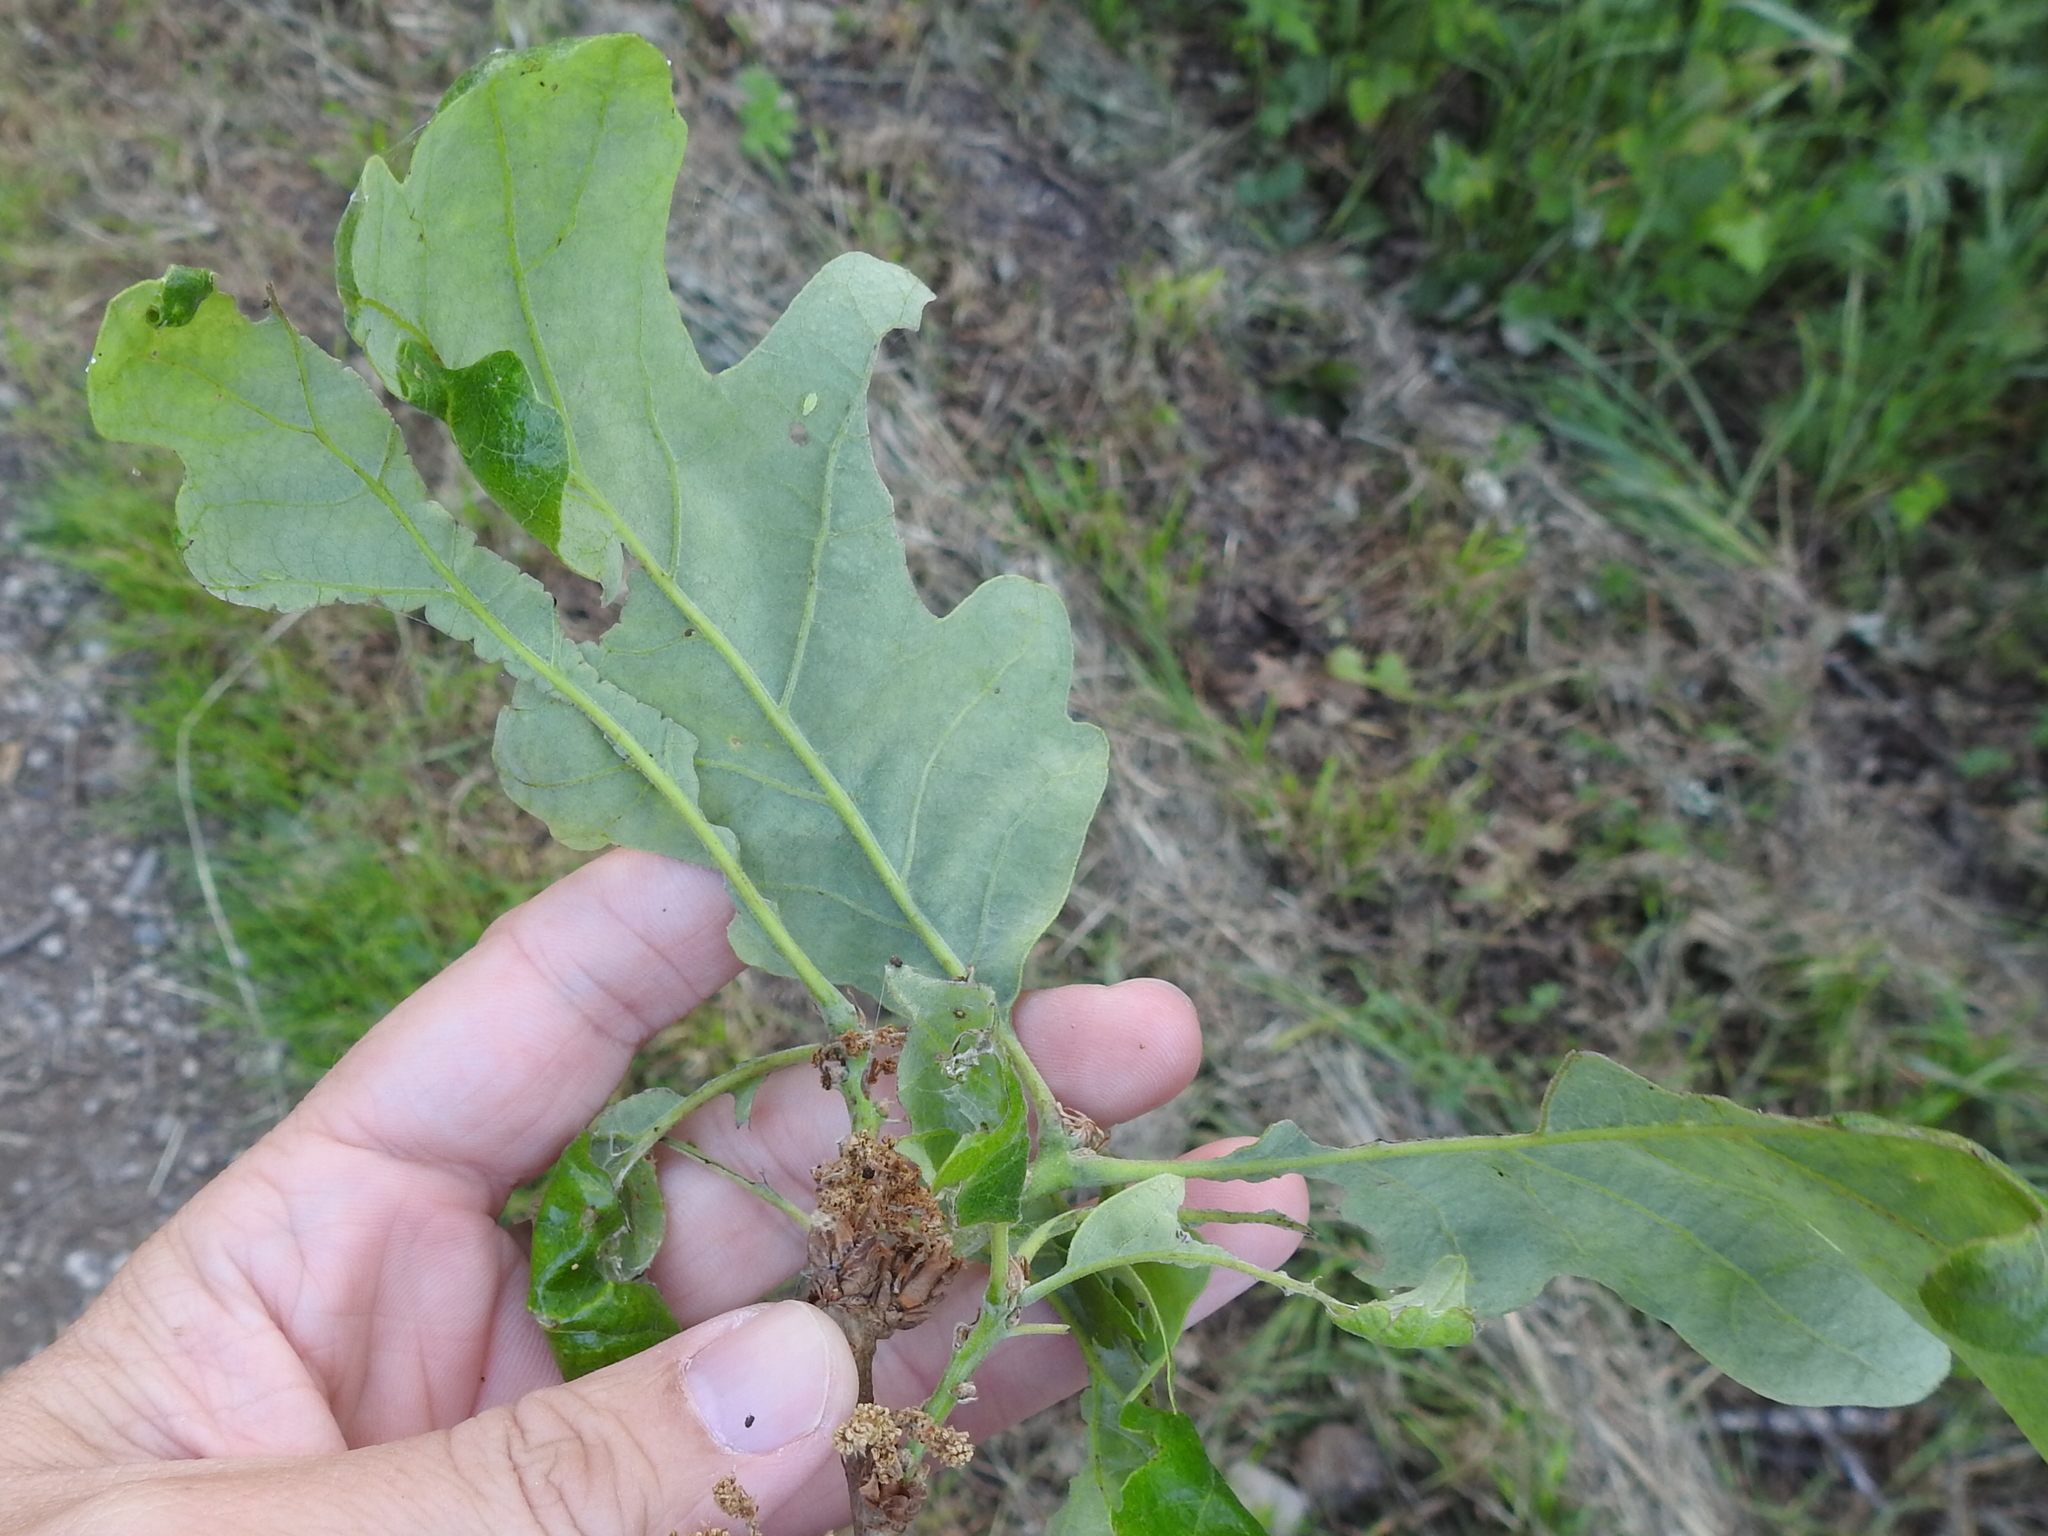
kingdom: Plantae
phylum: Tracheophyta
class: Magnoliopsida
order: Fagales
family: Fagaceae
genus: Quercus
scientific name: Quercus lobata
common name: Valley oak
